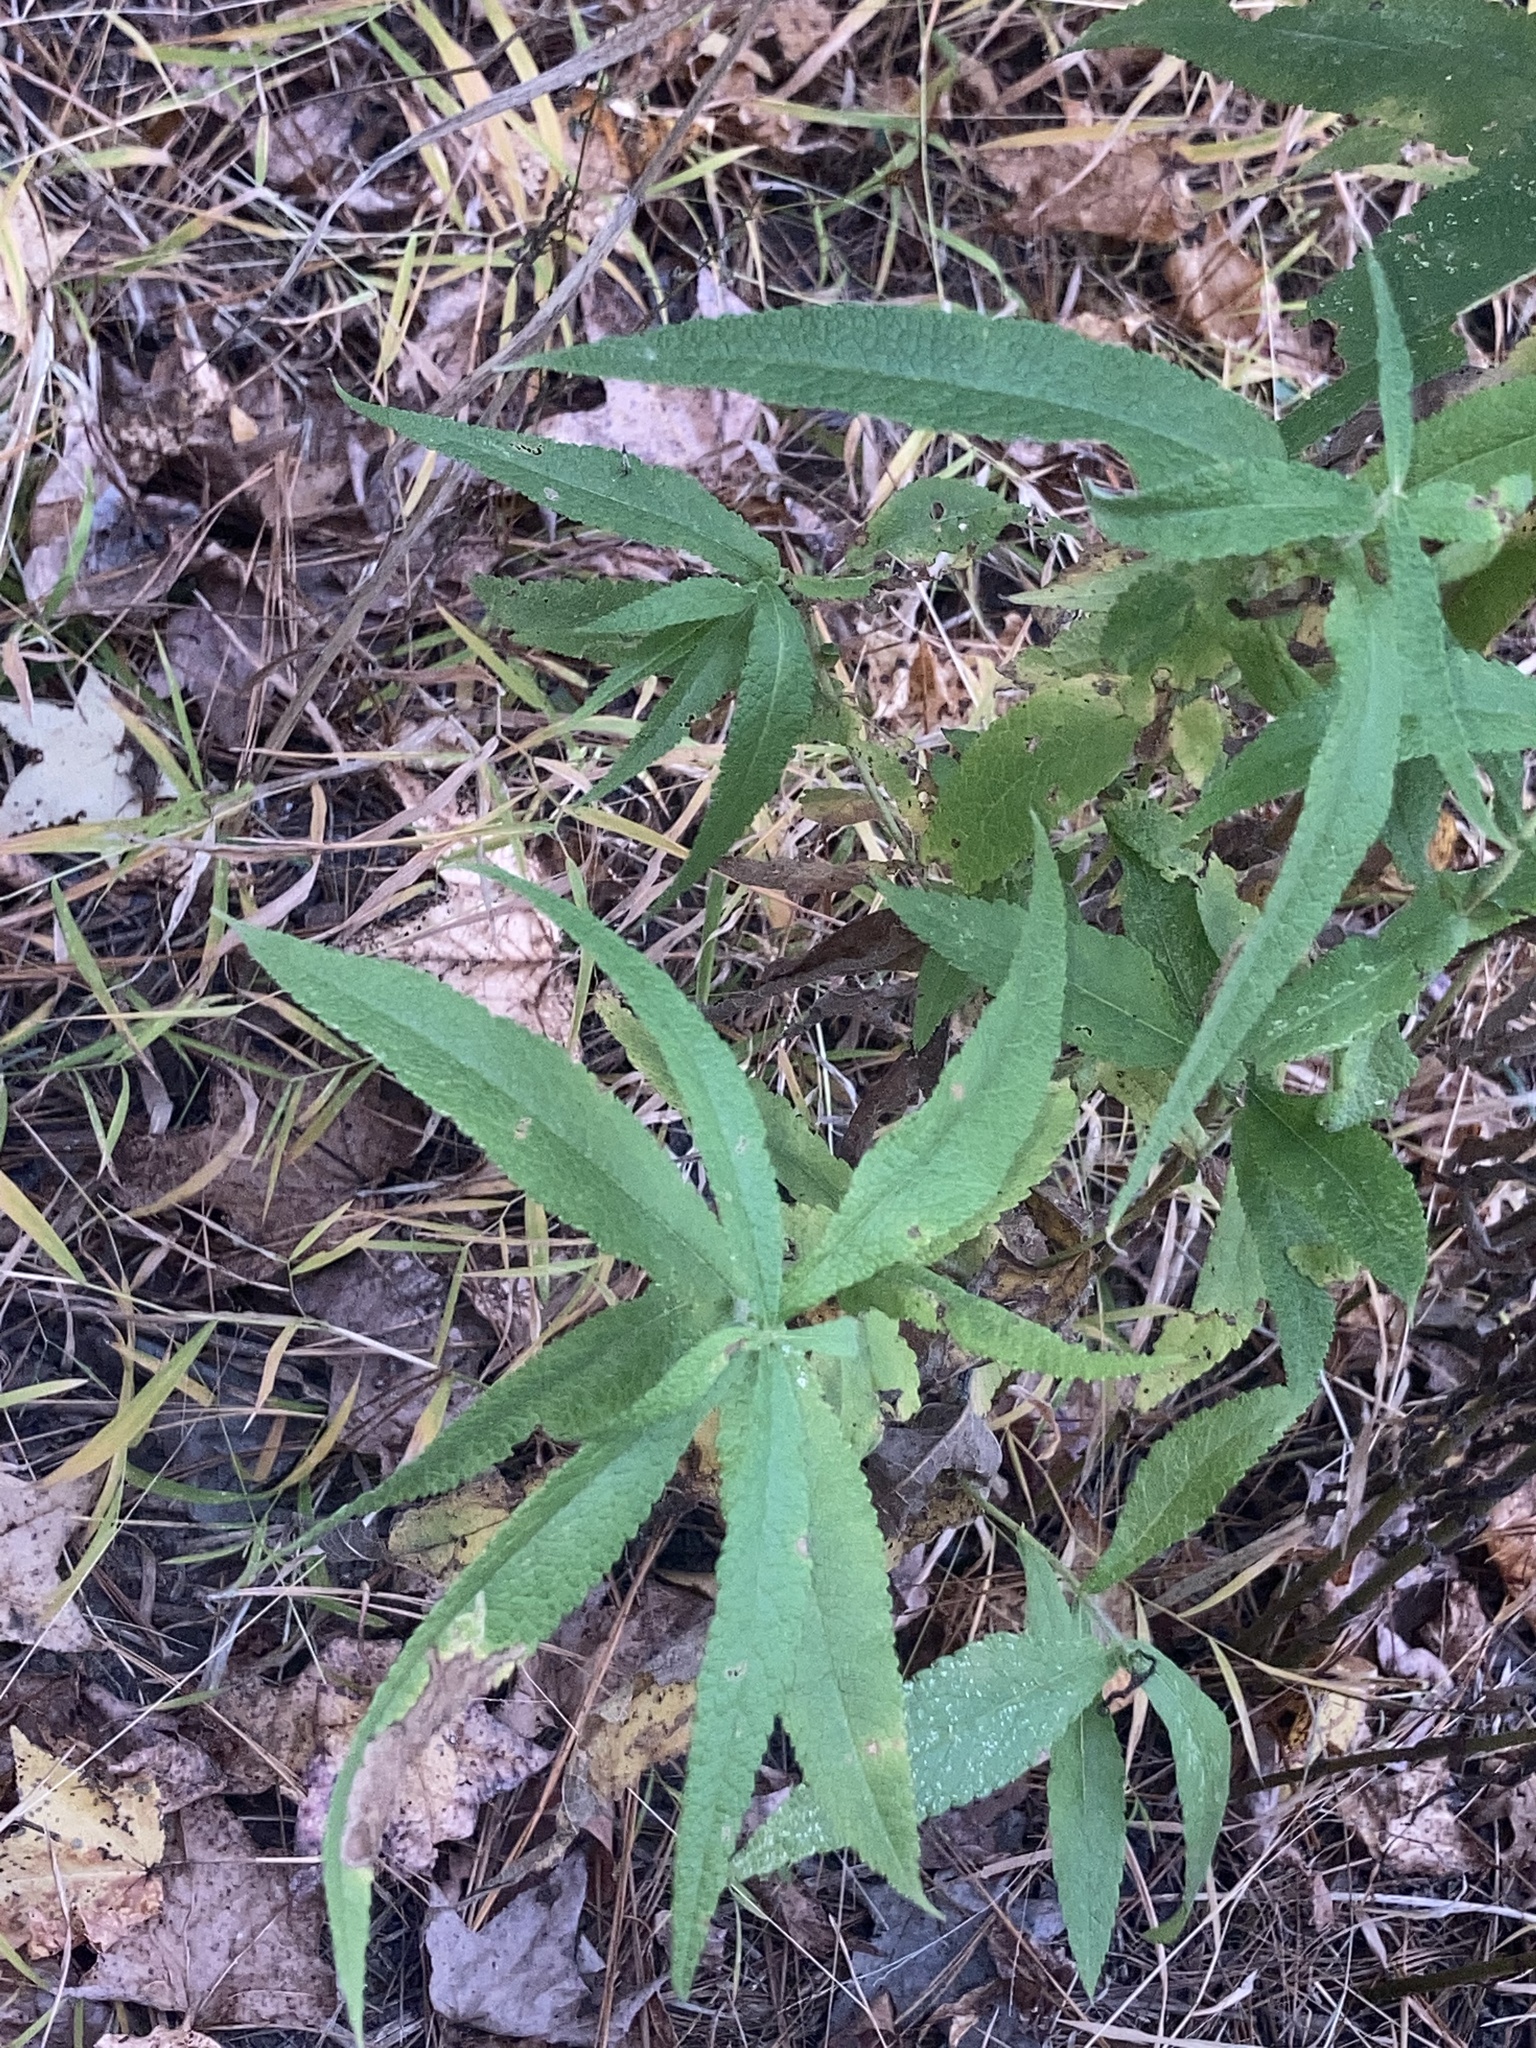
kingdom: Plantae
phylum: Tracheophyta
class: Magnoliopsida
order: Asterales
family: Asteraceae
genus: Eupatorium
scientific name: Eupatorium perfoliatum
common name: Boneset
